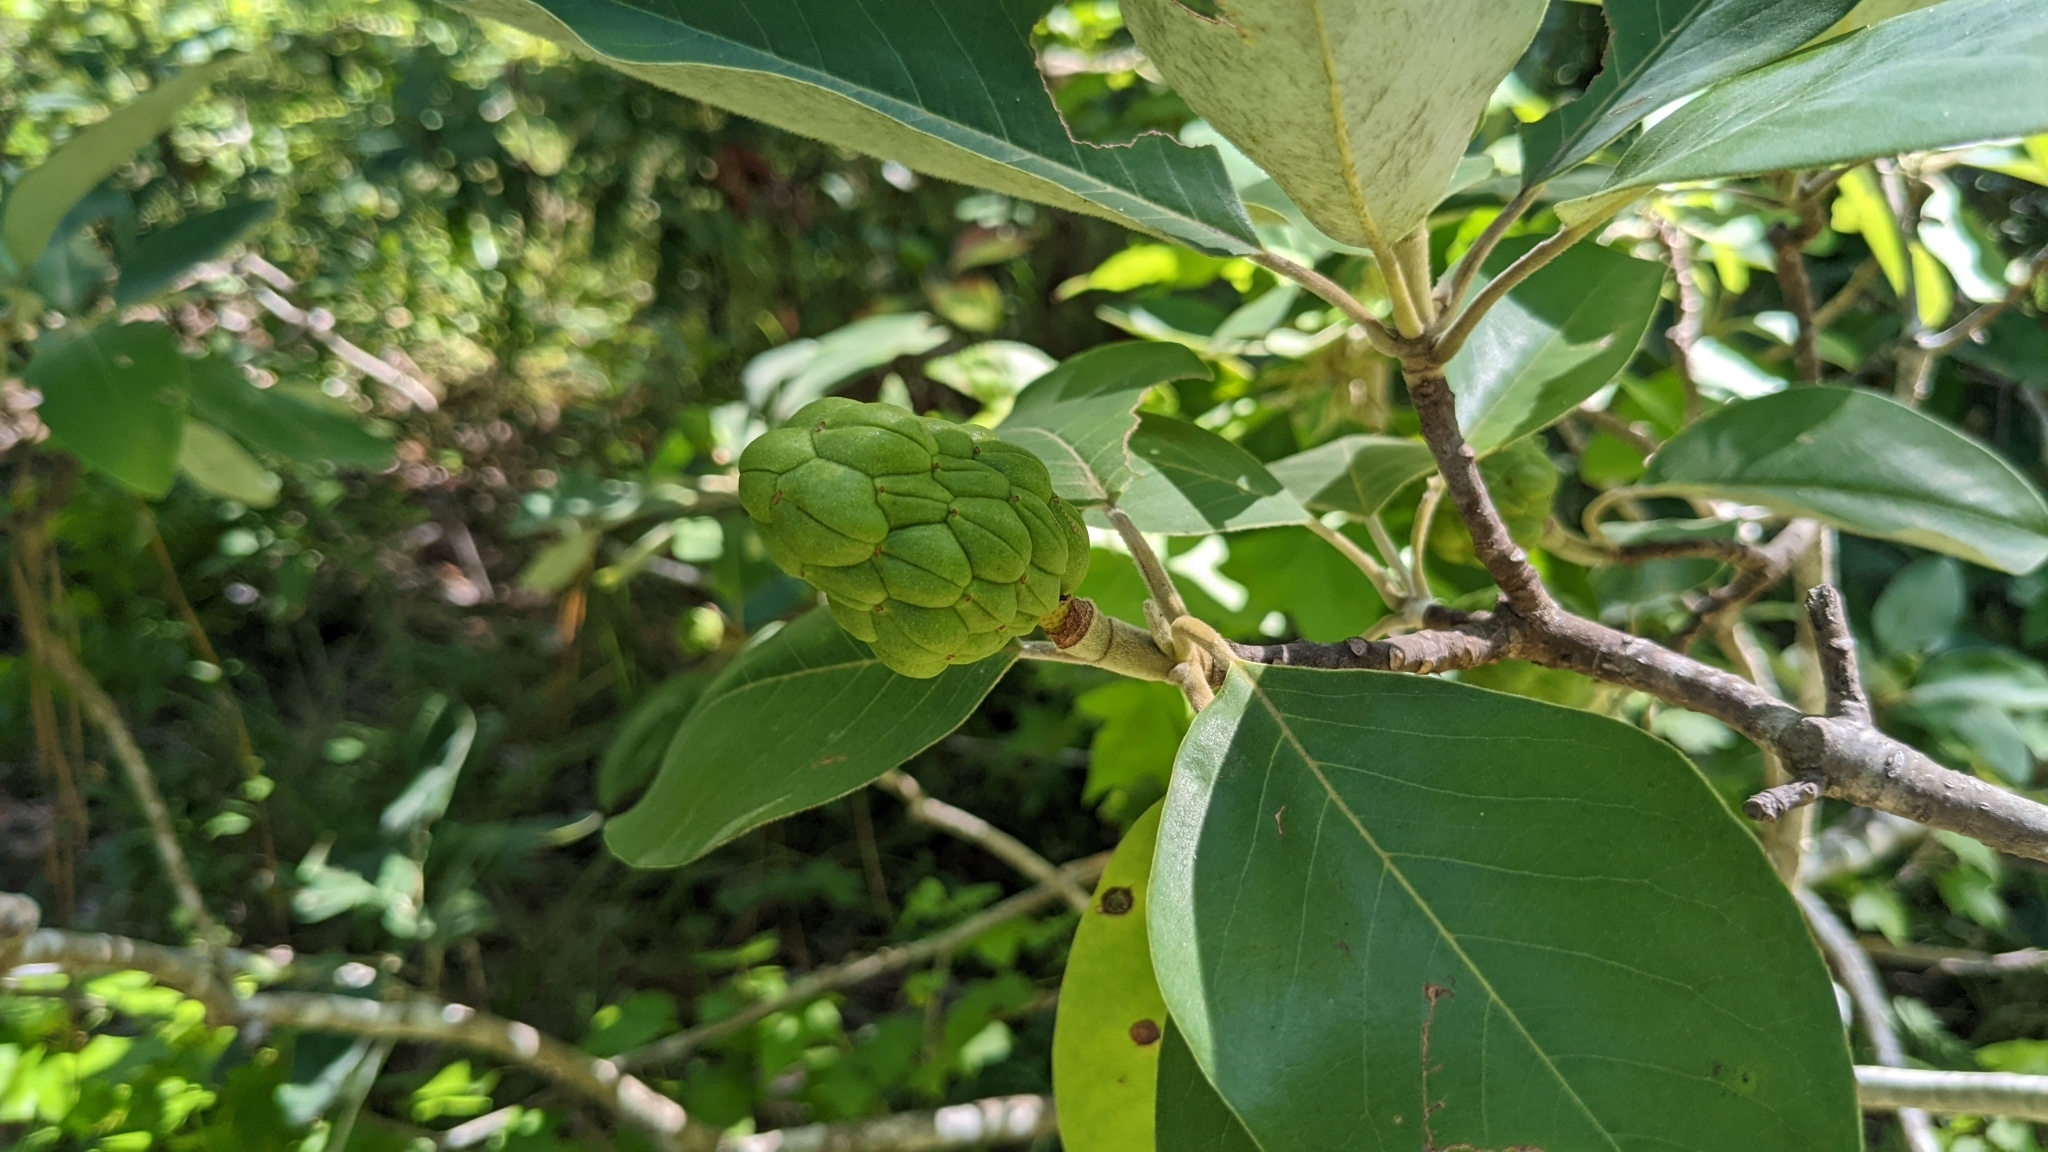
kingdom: Plantae
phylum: Tracheophyta
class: Magnoliopsida
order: Magnoliales
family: Magnoliaceae
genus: Magnolia
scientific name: Magnolia virginiana
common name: Swamp bay
